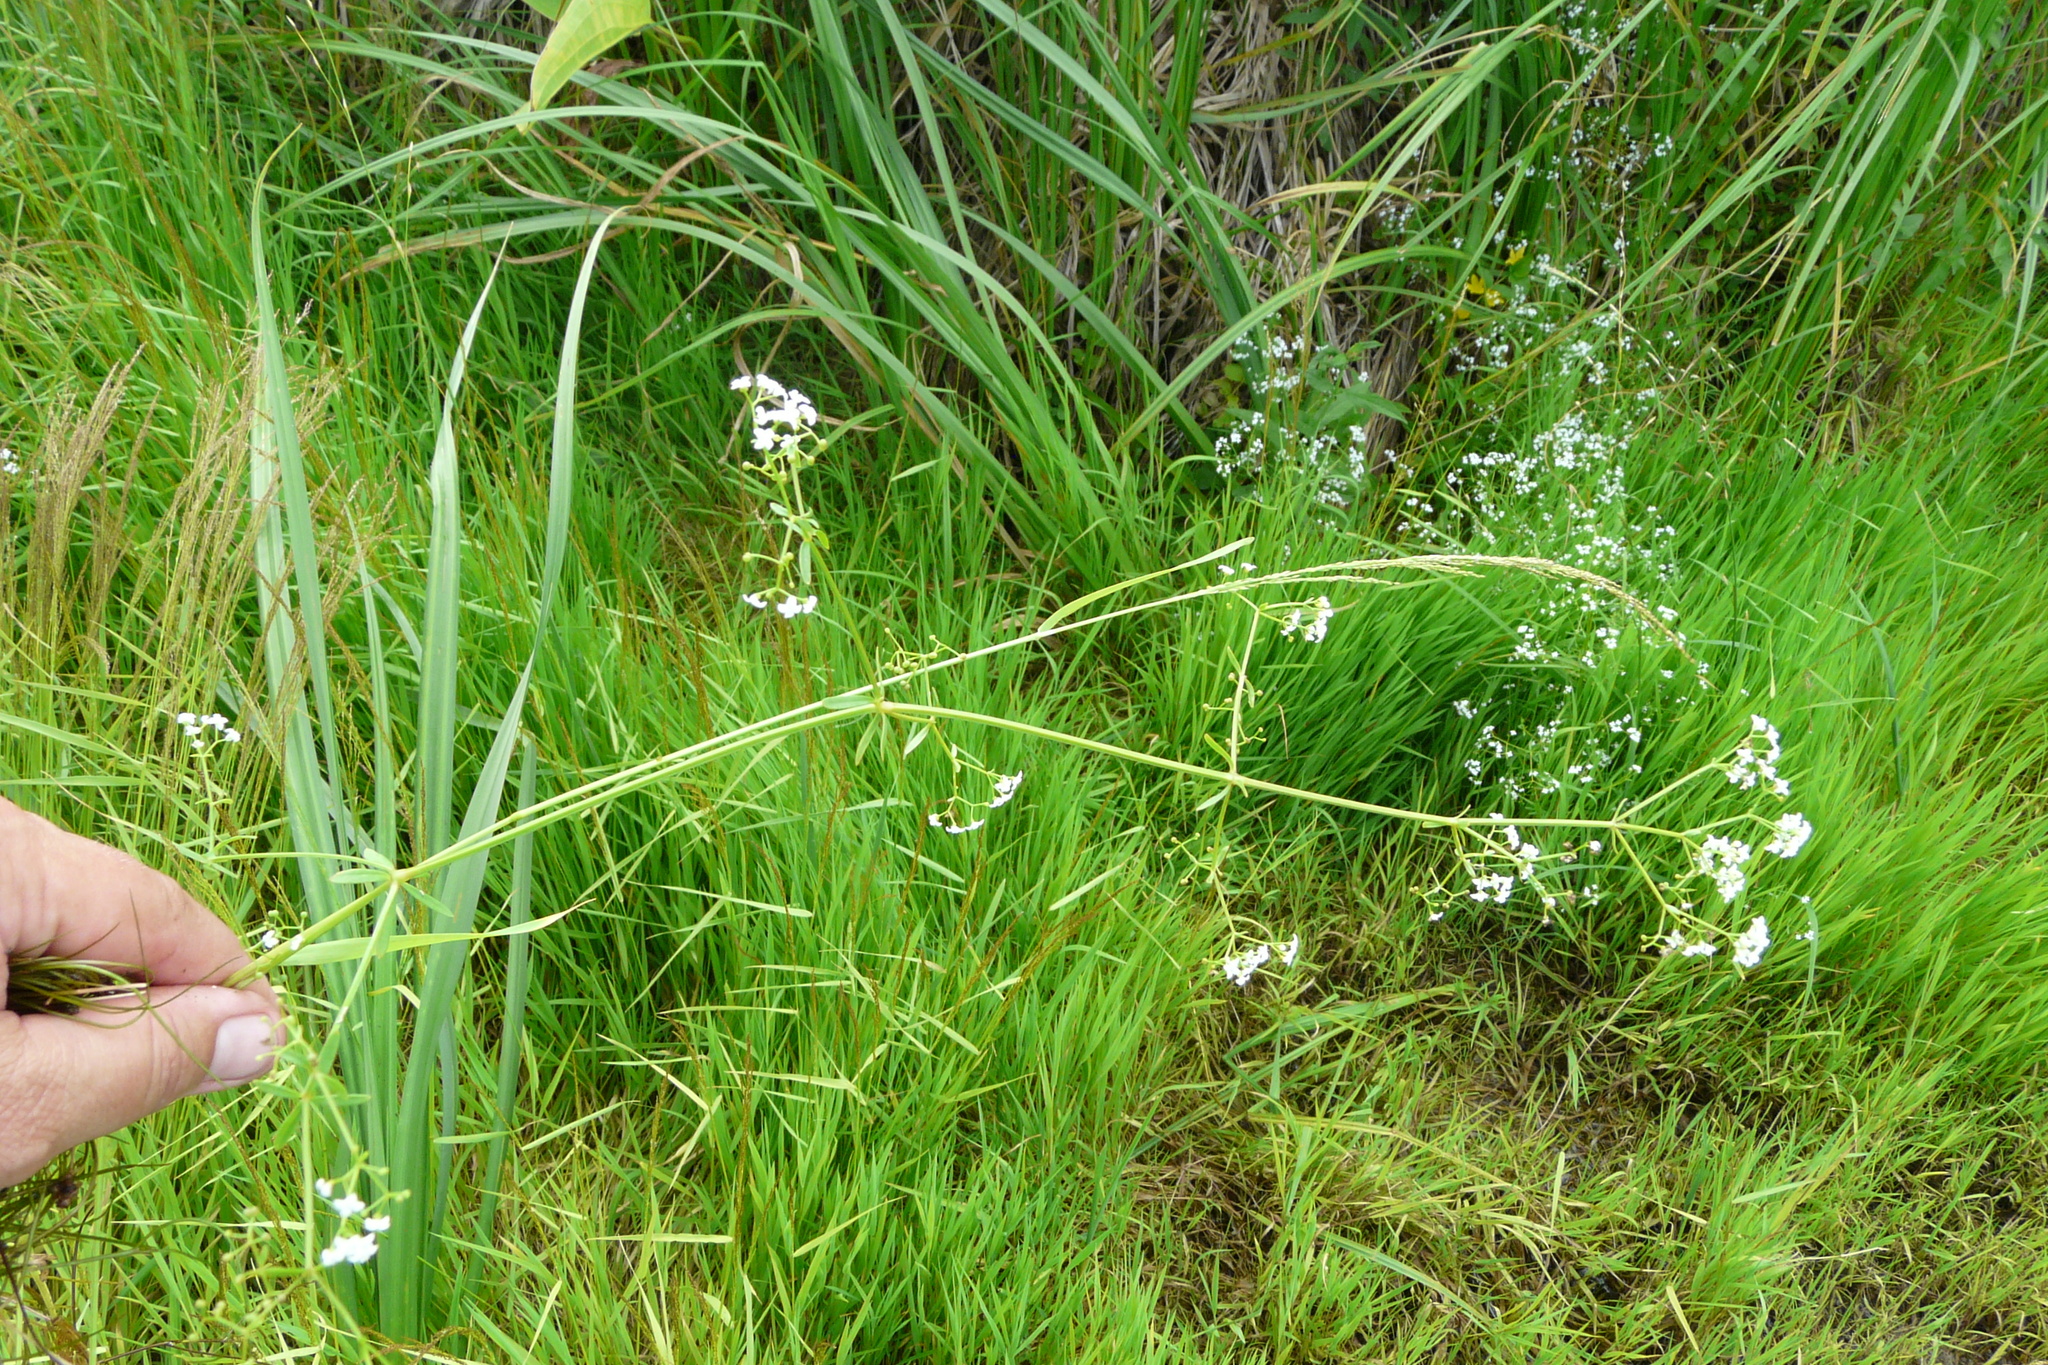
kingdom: Plantae
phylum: Tracheophyta
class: Magnoliopsida
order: Gentianales
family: Rubiaceae
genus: Galium
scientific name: Galium palustre
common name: Common marsh-bedstraw
